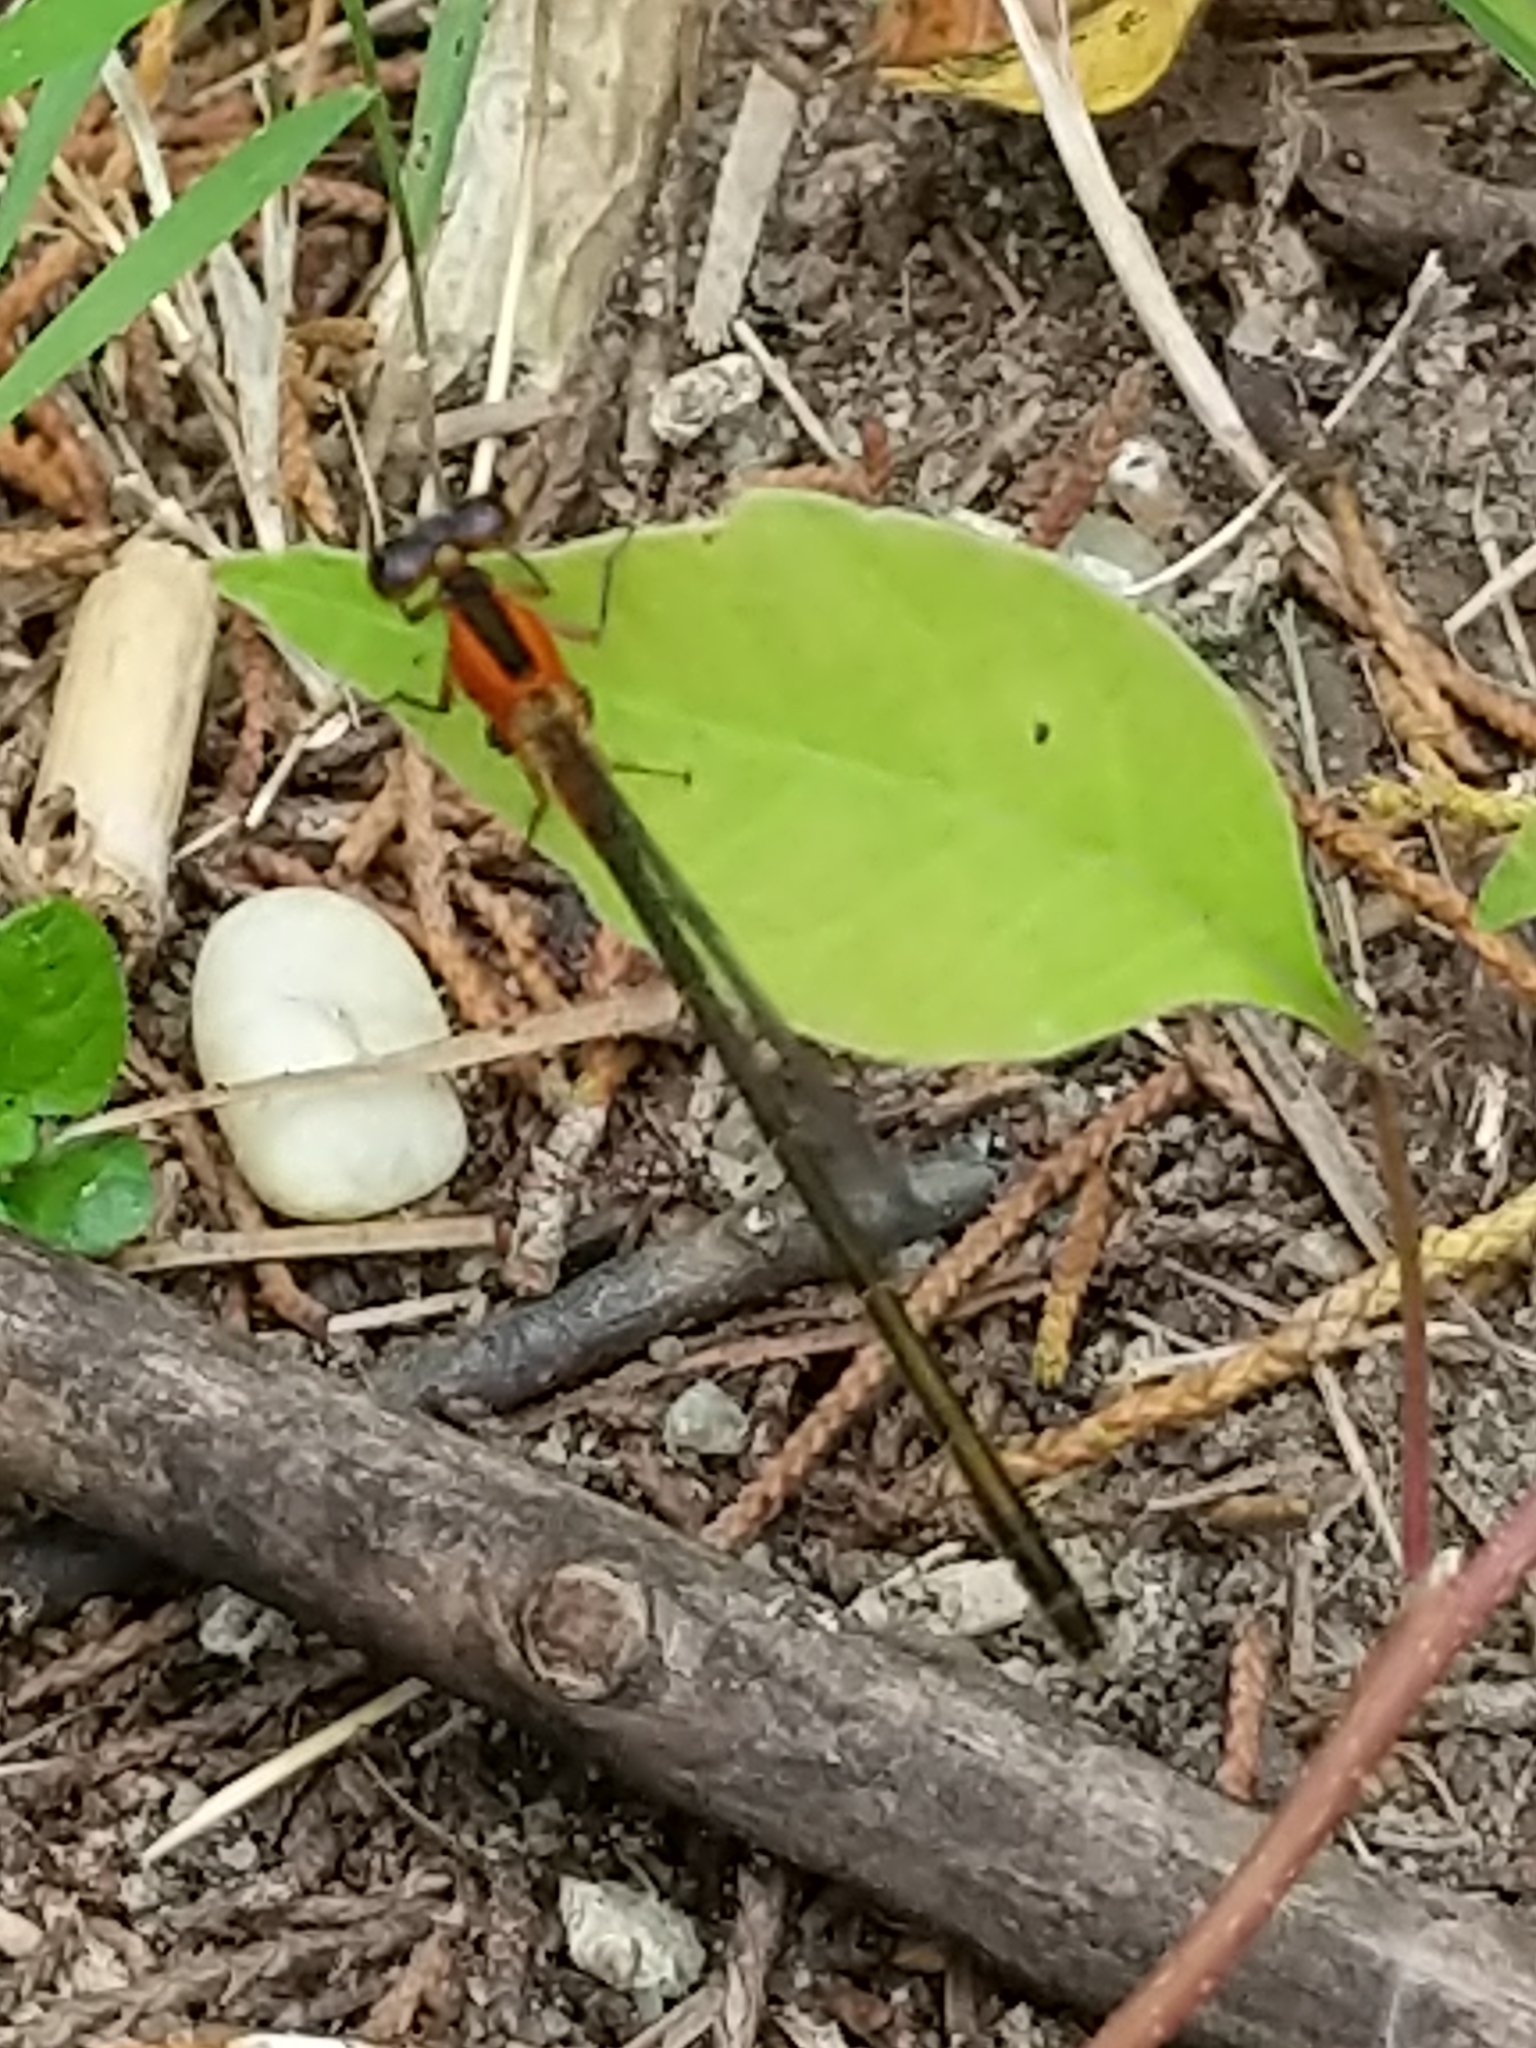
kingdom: Animalia
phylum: Arthropoda
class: Insecta
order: Odonata
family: Coenagrionidae
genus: Ischnura
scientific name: Ischnura ramburii
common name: Rambur's forktail
